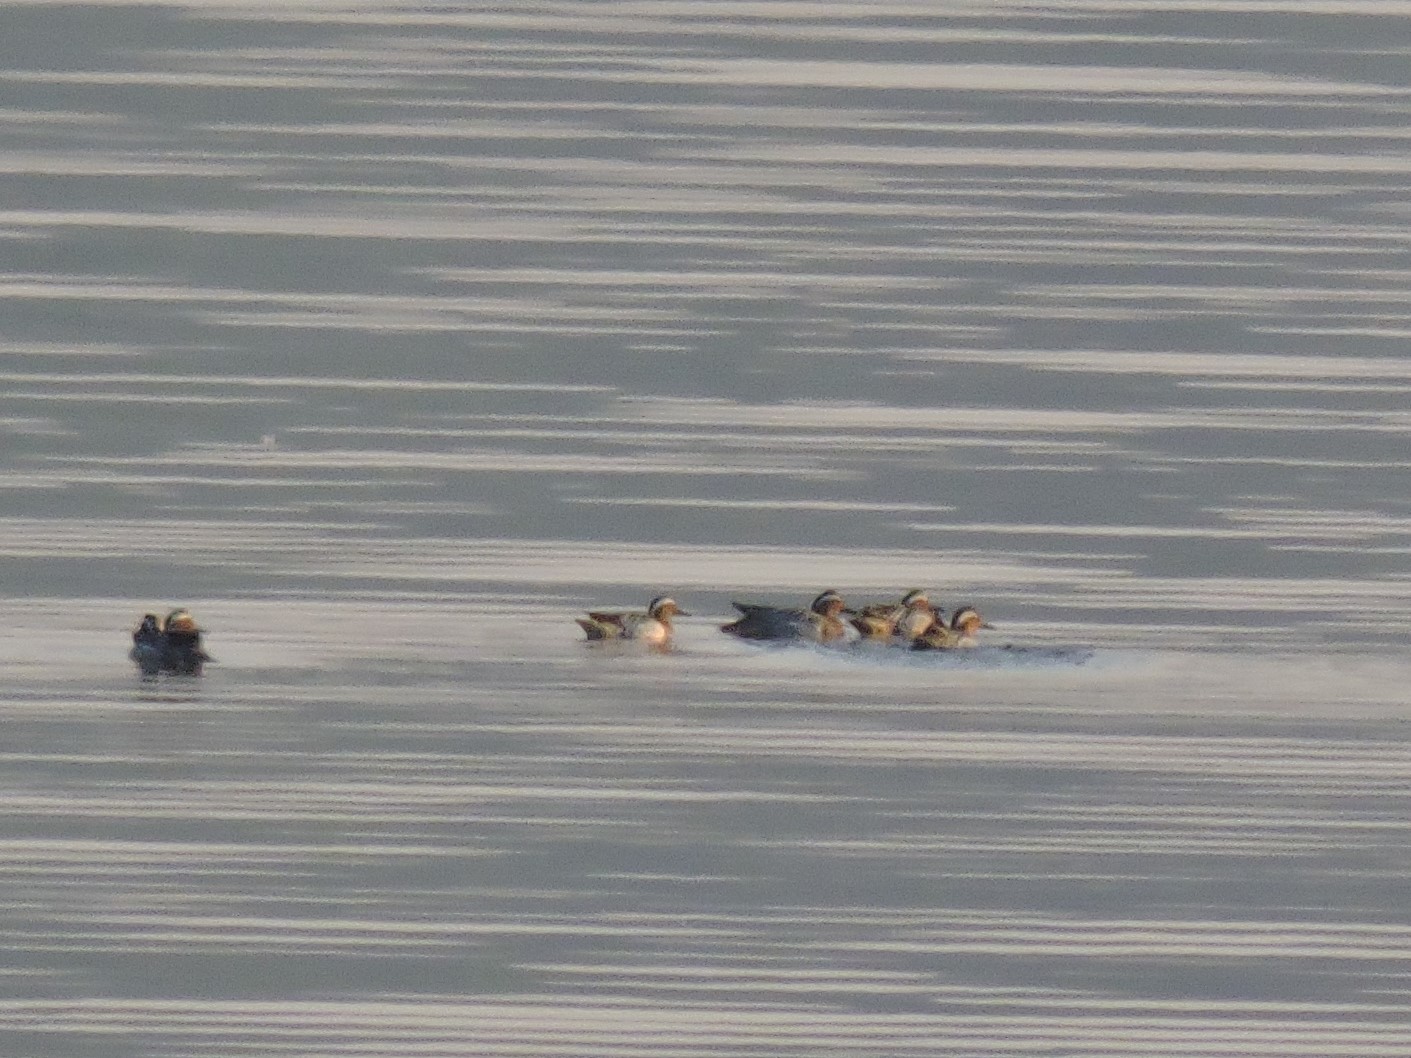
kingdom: Animalia
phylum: Chordata
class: Aves
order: Anseriformes
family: Anatidae
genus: Spatula
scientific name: Spatula querquedula
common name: Garganey
